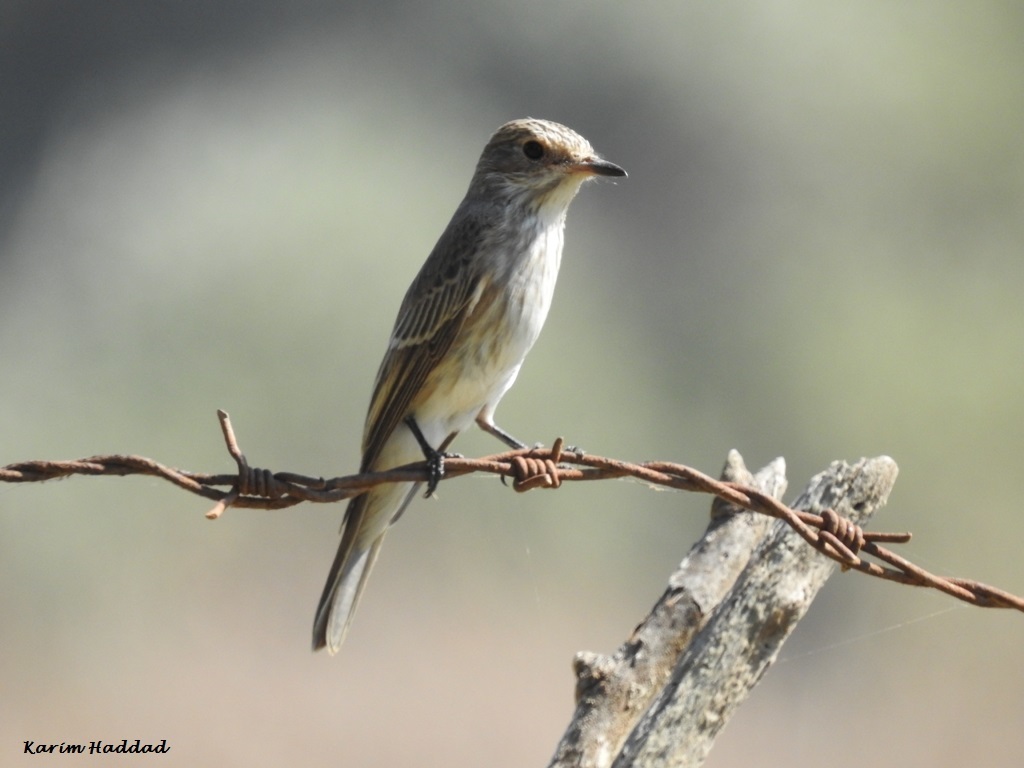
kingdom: Animalia
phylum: Chordata
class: Aves
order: Passeriformes
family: Muscicapidae
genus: Muscicapa
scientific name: Muscicapa striata
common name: Spotted flycatcher
